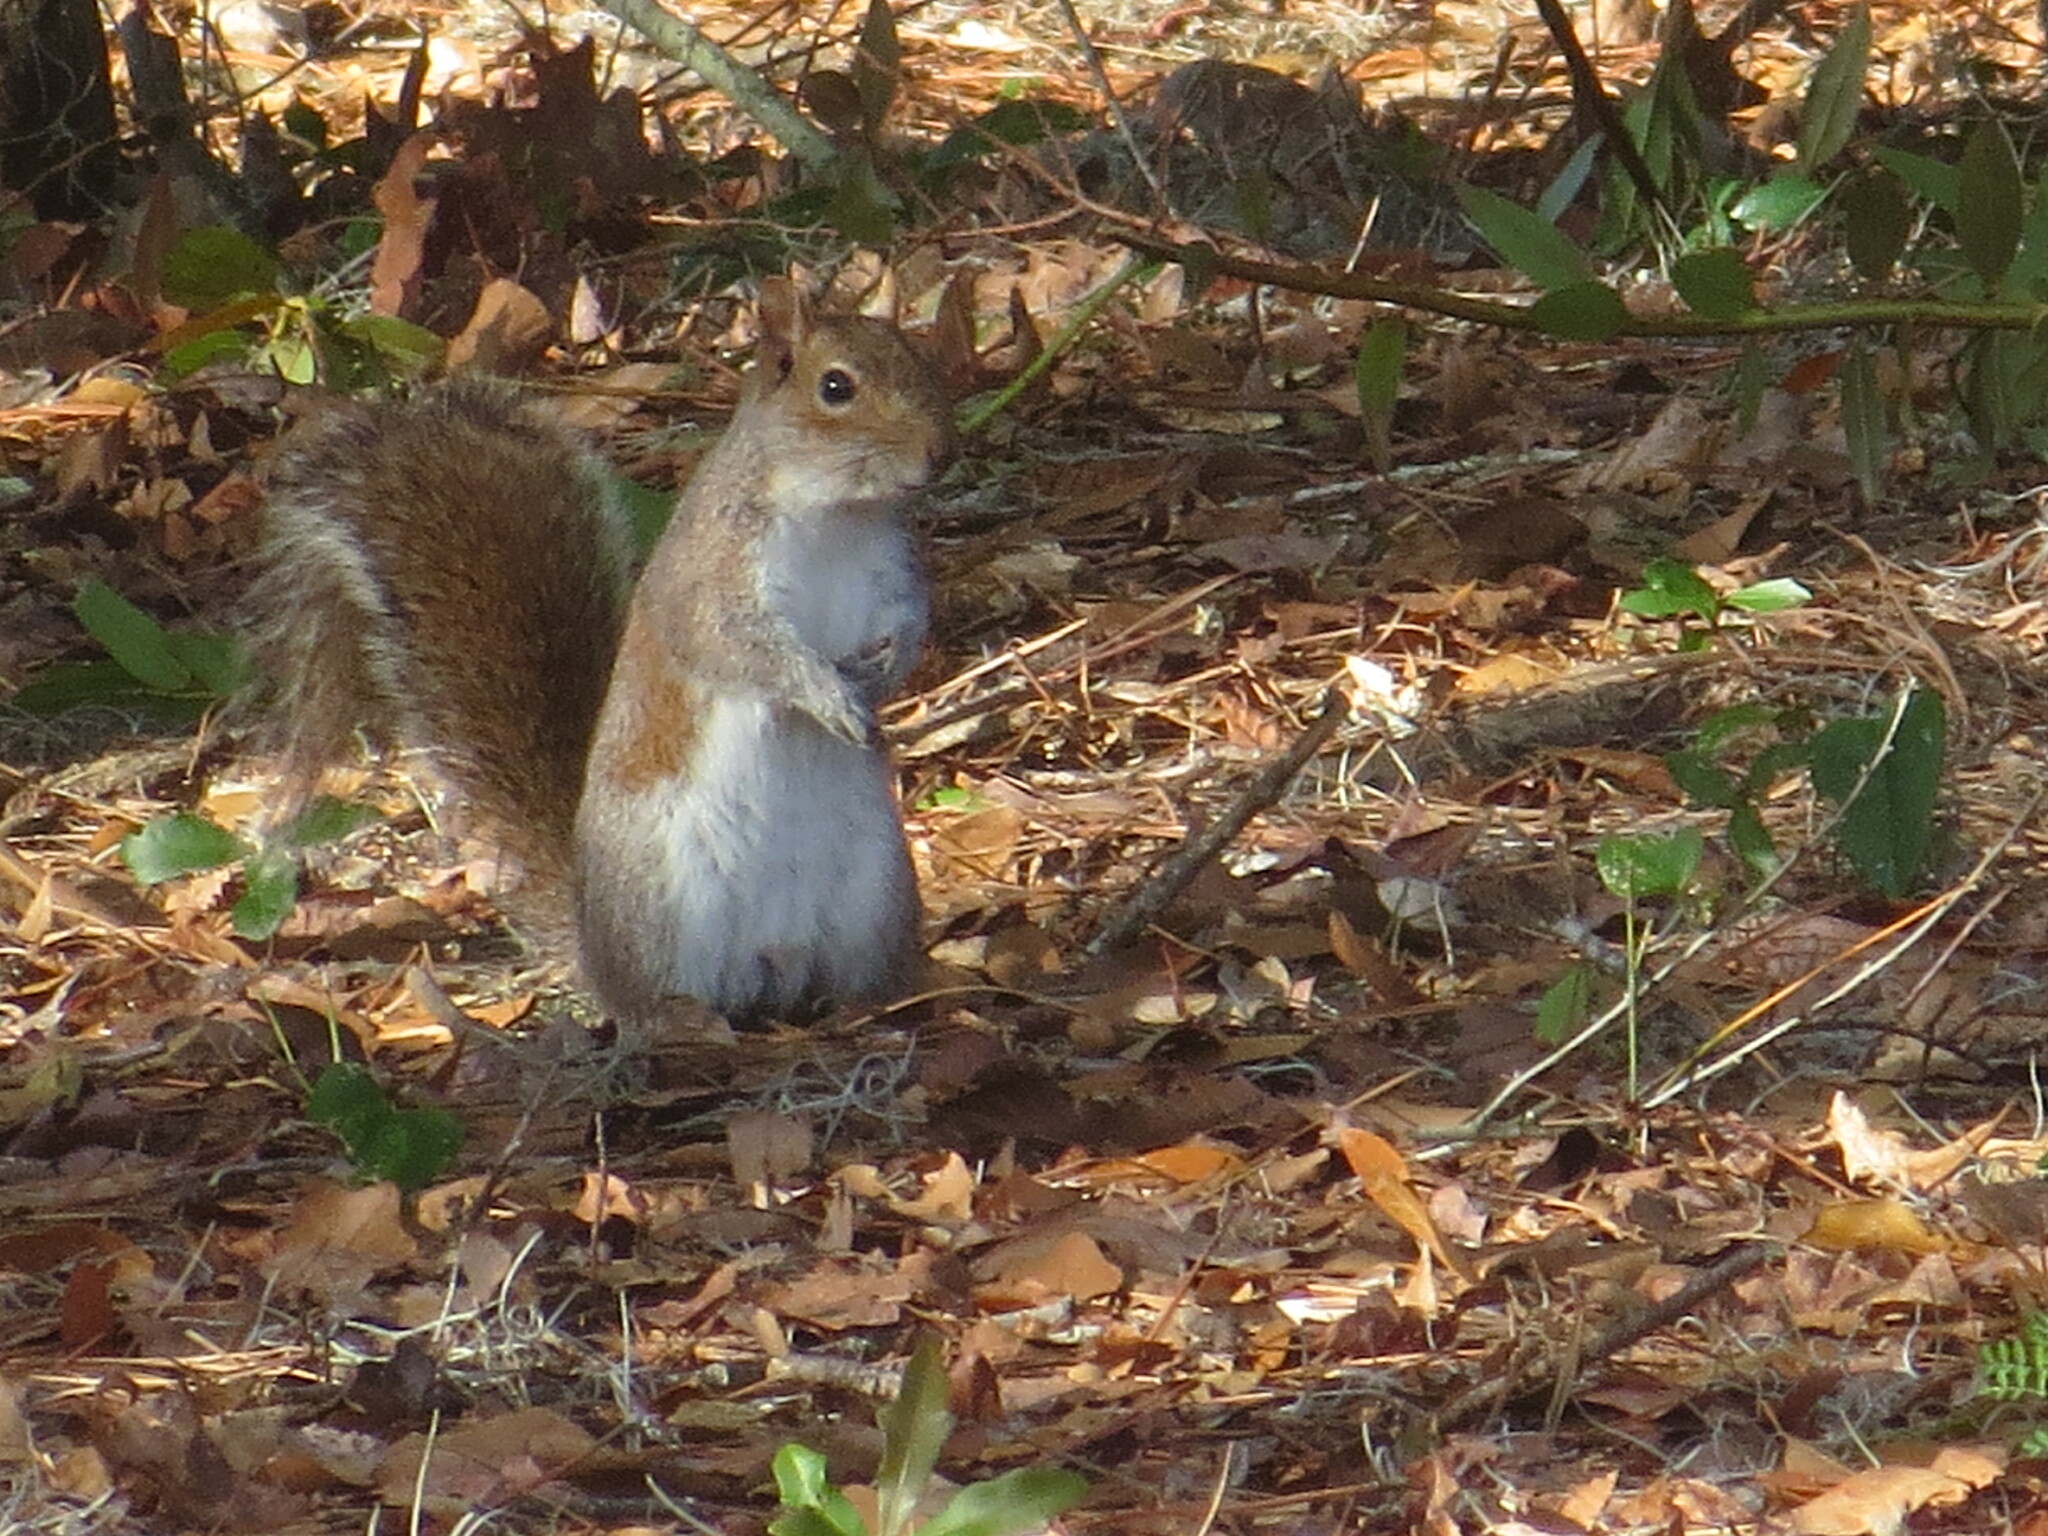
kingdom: Animalia
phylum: Chordata
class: Mammalia
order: Rodentia
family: Sciuridae
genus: Sciurus
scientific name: Sciurus carolinensis
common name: Eastern gray squirrel
